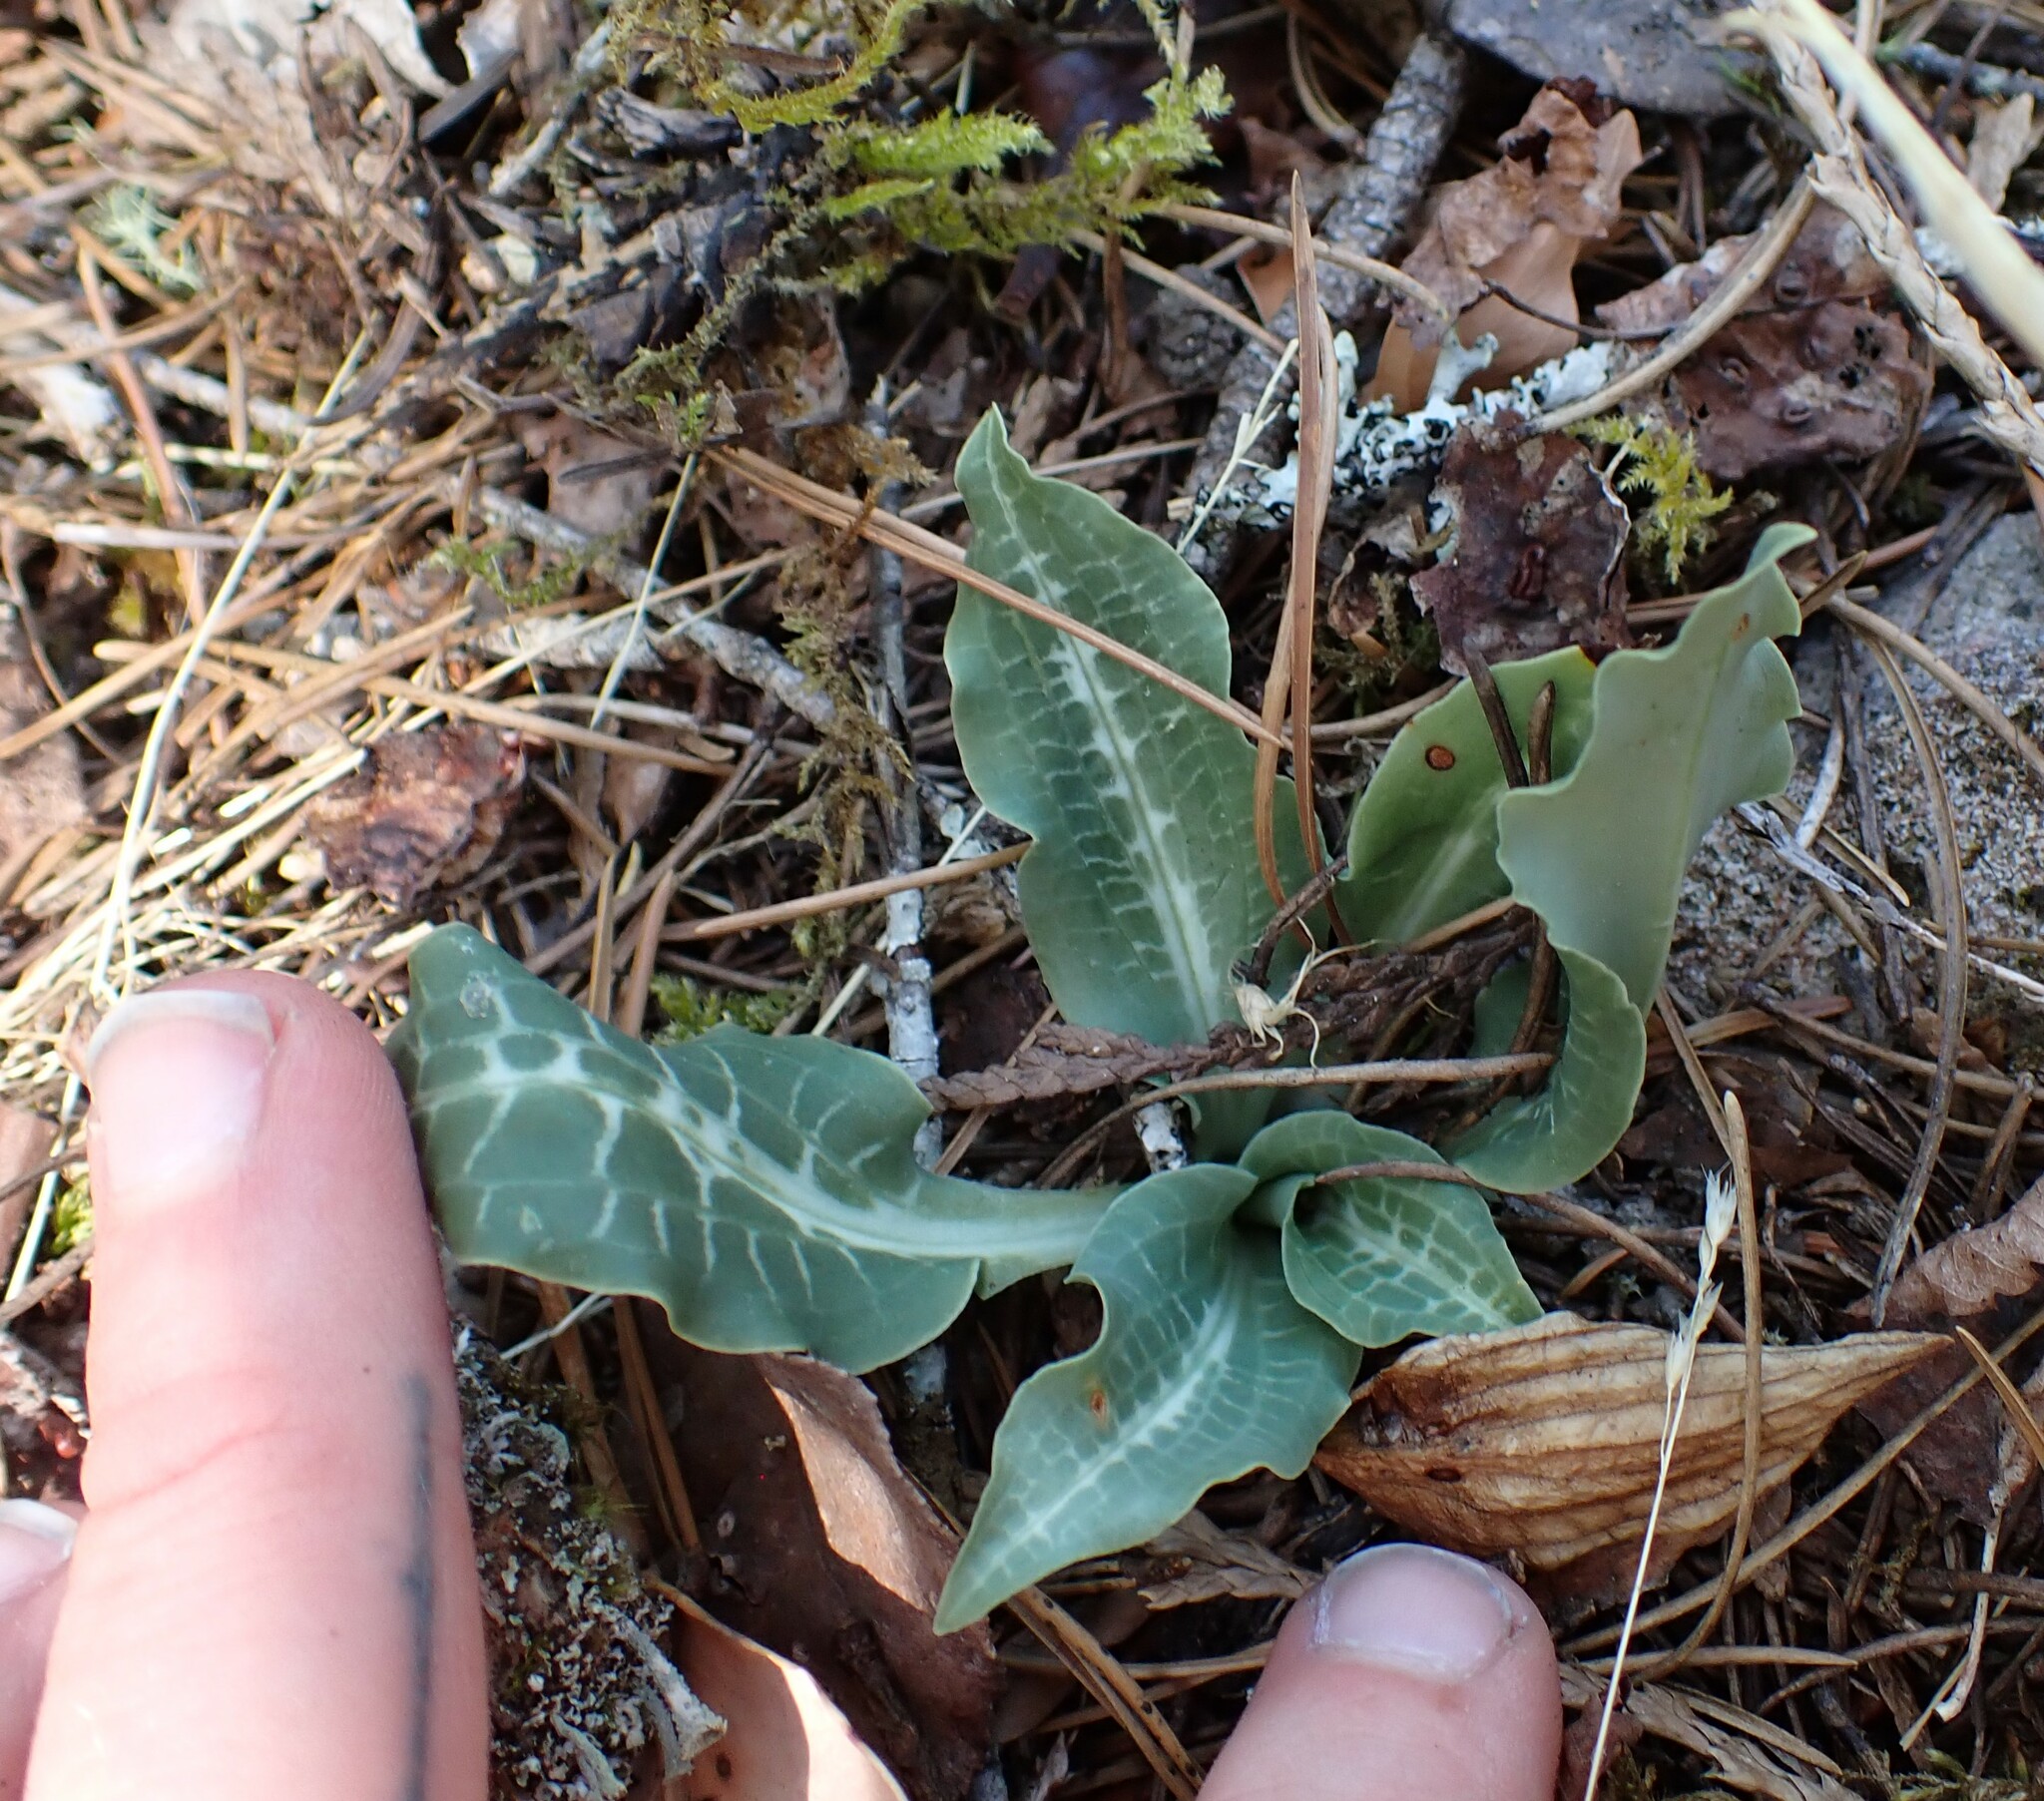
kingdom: Plantae
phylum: Tracheophyta
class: Liliopsida
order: Asparagales
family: Orchidaceae
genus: Goodyera
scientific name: Goodyera oblongifolia
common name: Giant rattlesnake-plantain
